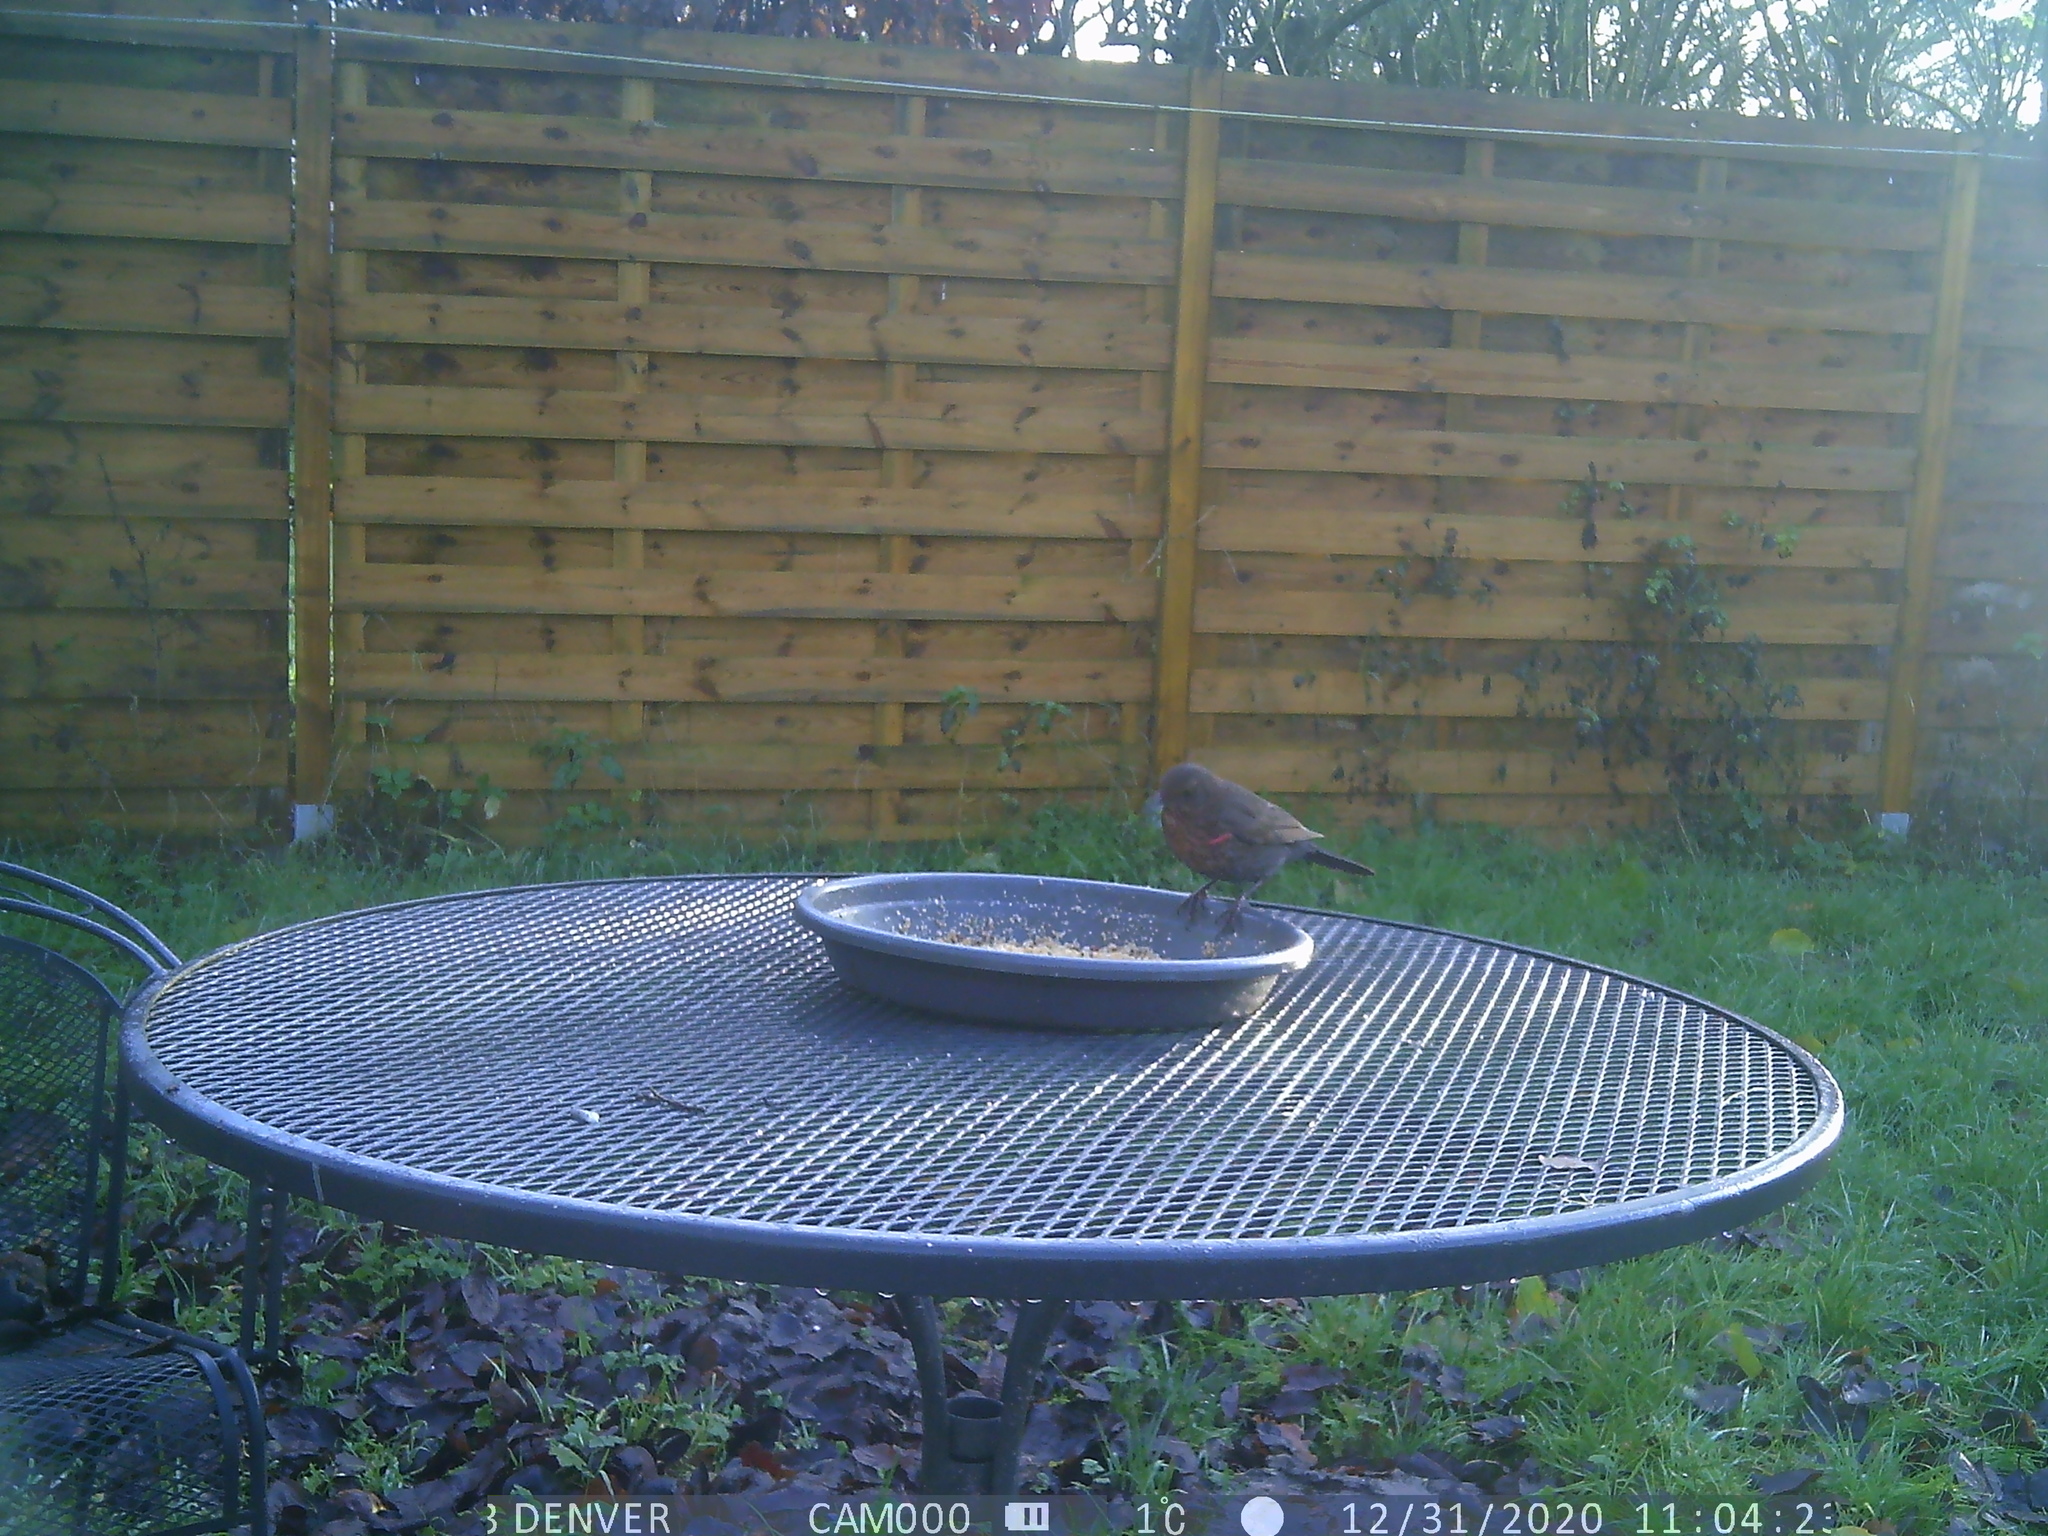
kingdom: Animalia
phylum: Chordata
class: Aves
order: Passeriformes
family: Muscicapidae
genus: Erithacus
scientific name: Erithacus rubecula
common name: European robin
